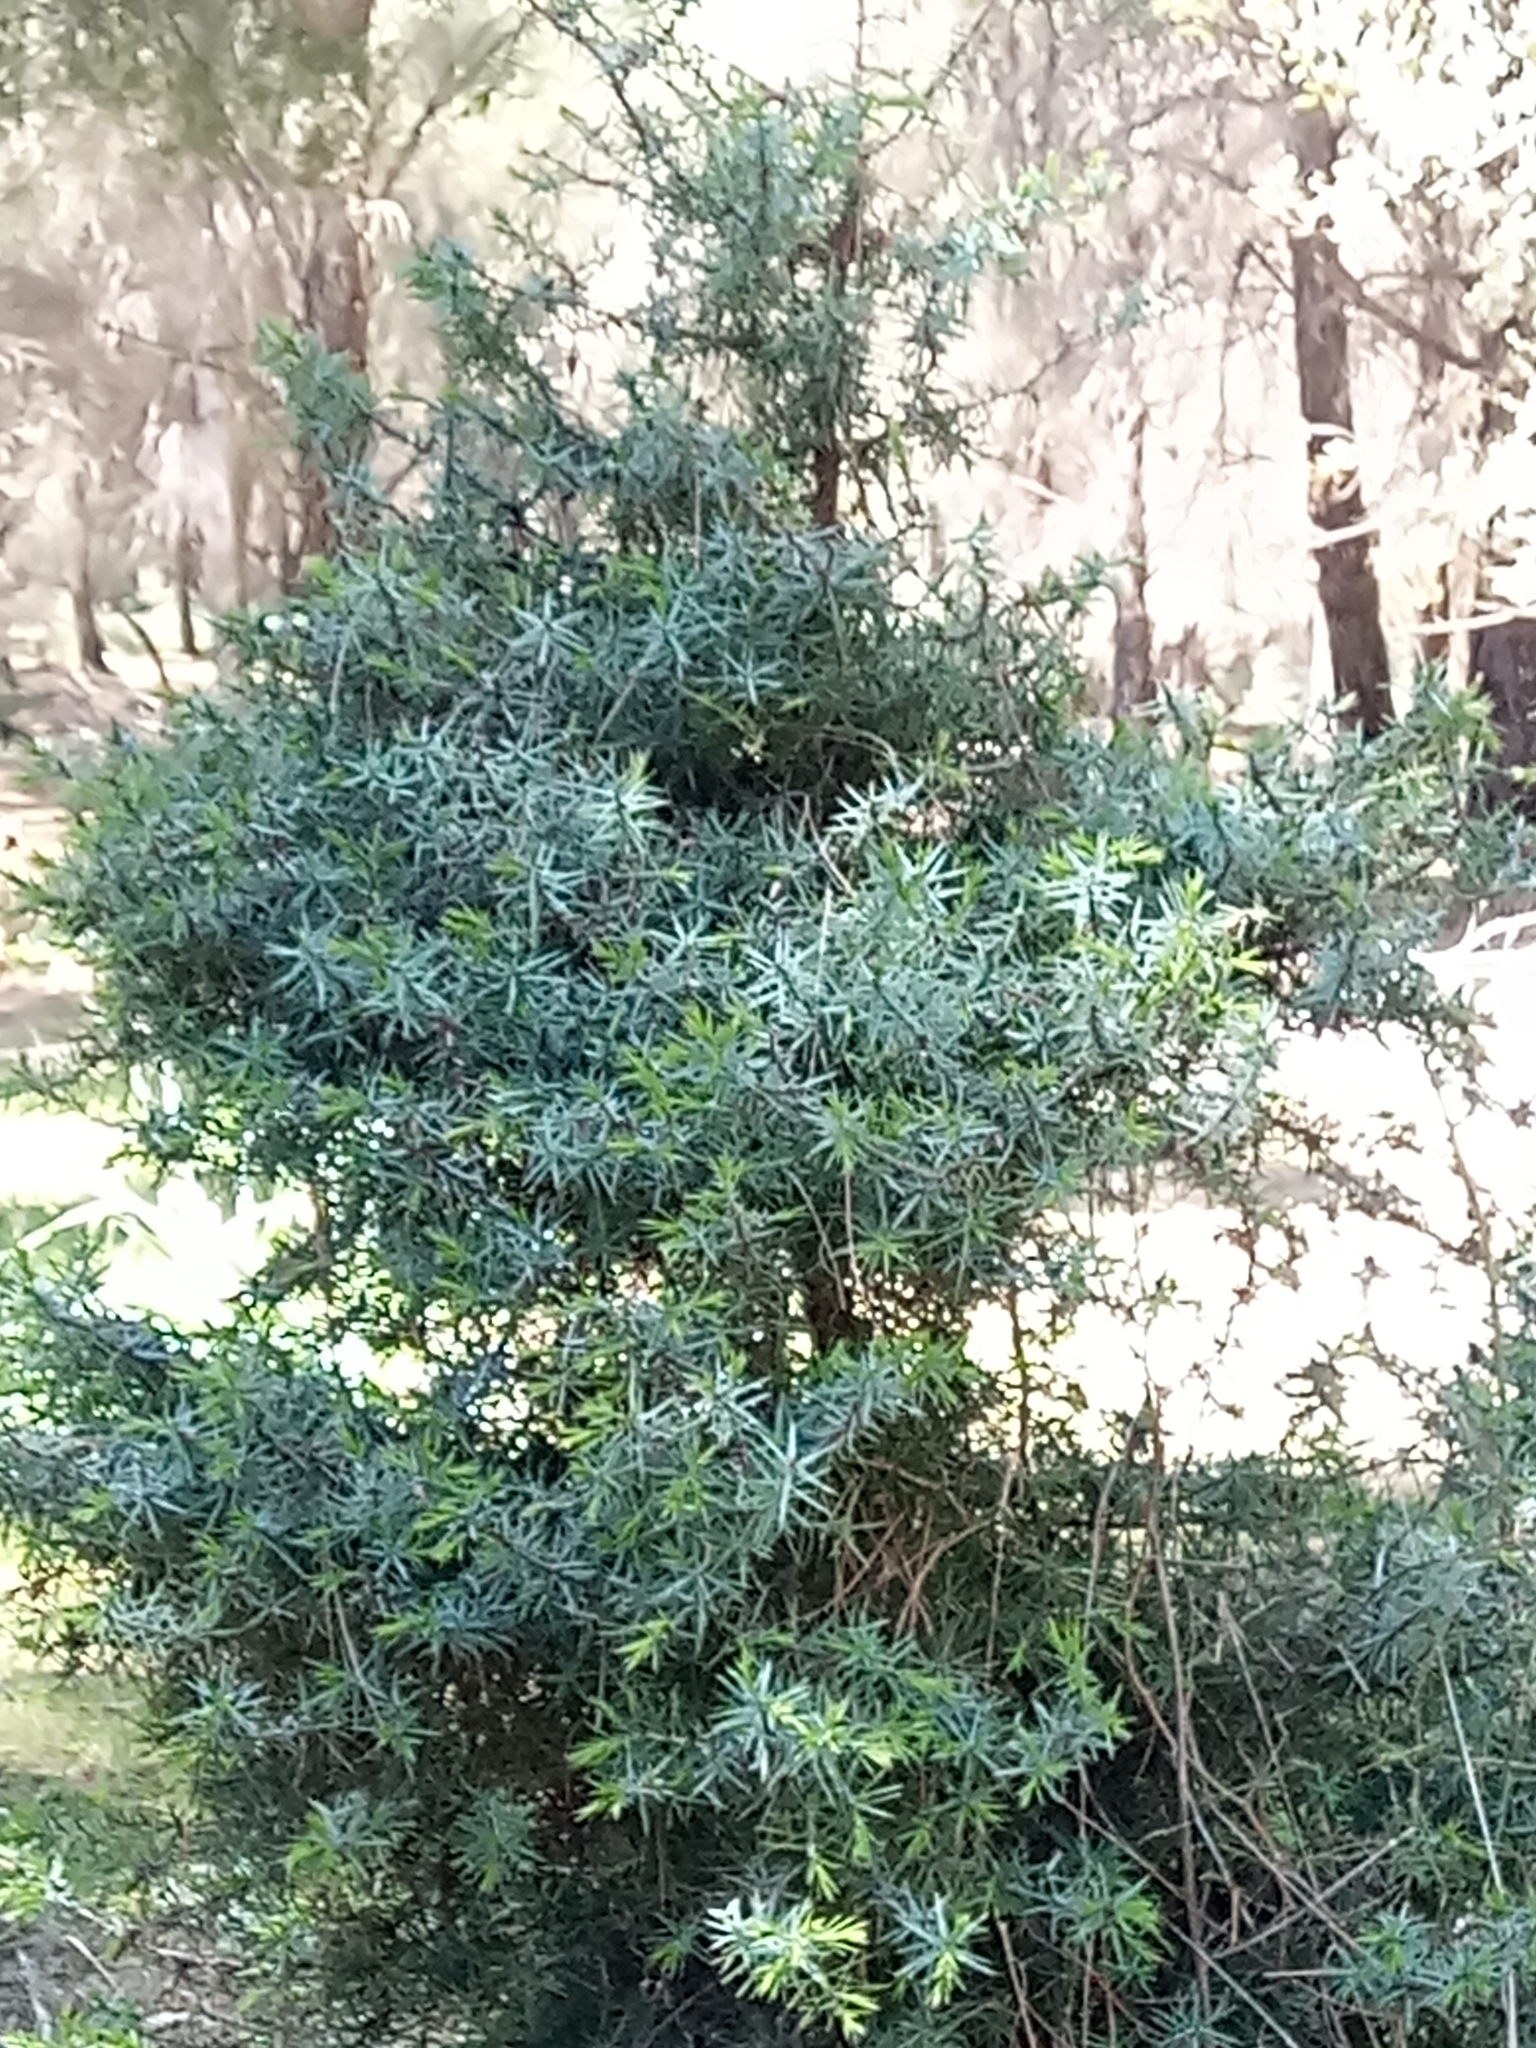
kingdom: Plantae
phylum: Tracheophyta
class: Pinopsida
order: Pinales
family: Cupressaceae
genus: Juniperus
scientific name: Juniperus oxycedrus
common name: Prickly juniper
